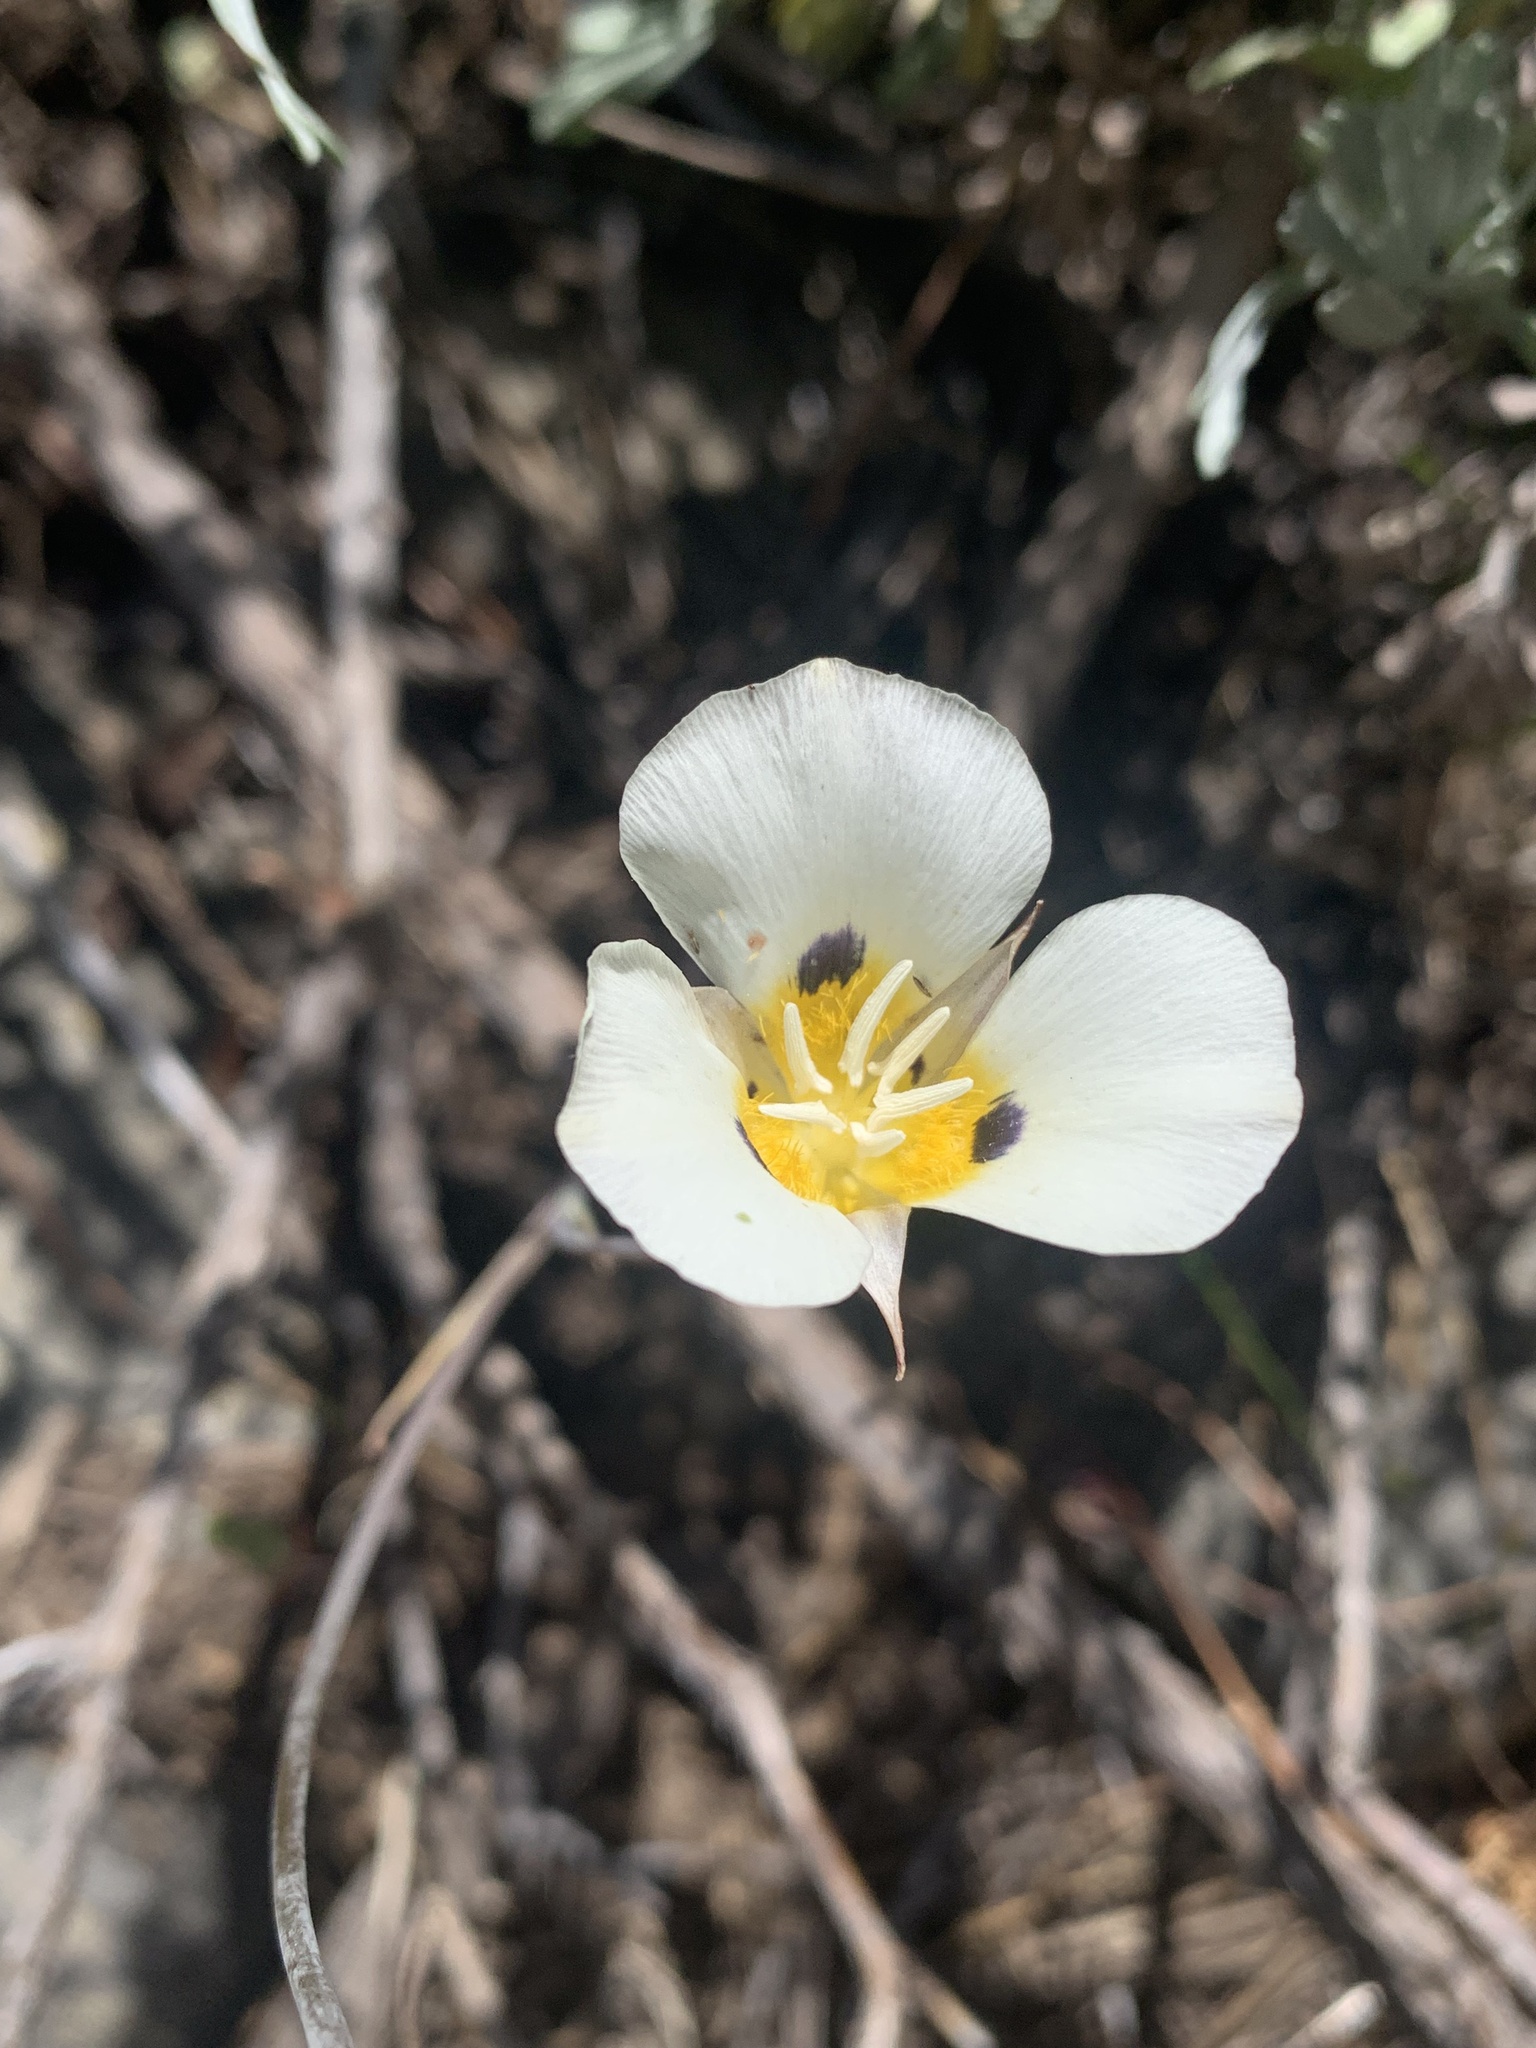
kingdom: Plantae
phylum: Tracheophyta
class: Liliopsida
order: Liliales
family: Liliaceae
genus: Calochortus
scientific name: Calochortus leichtlinii
